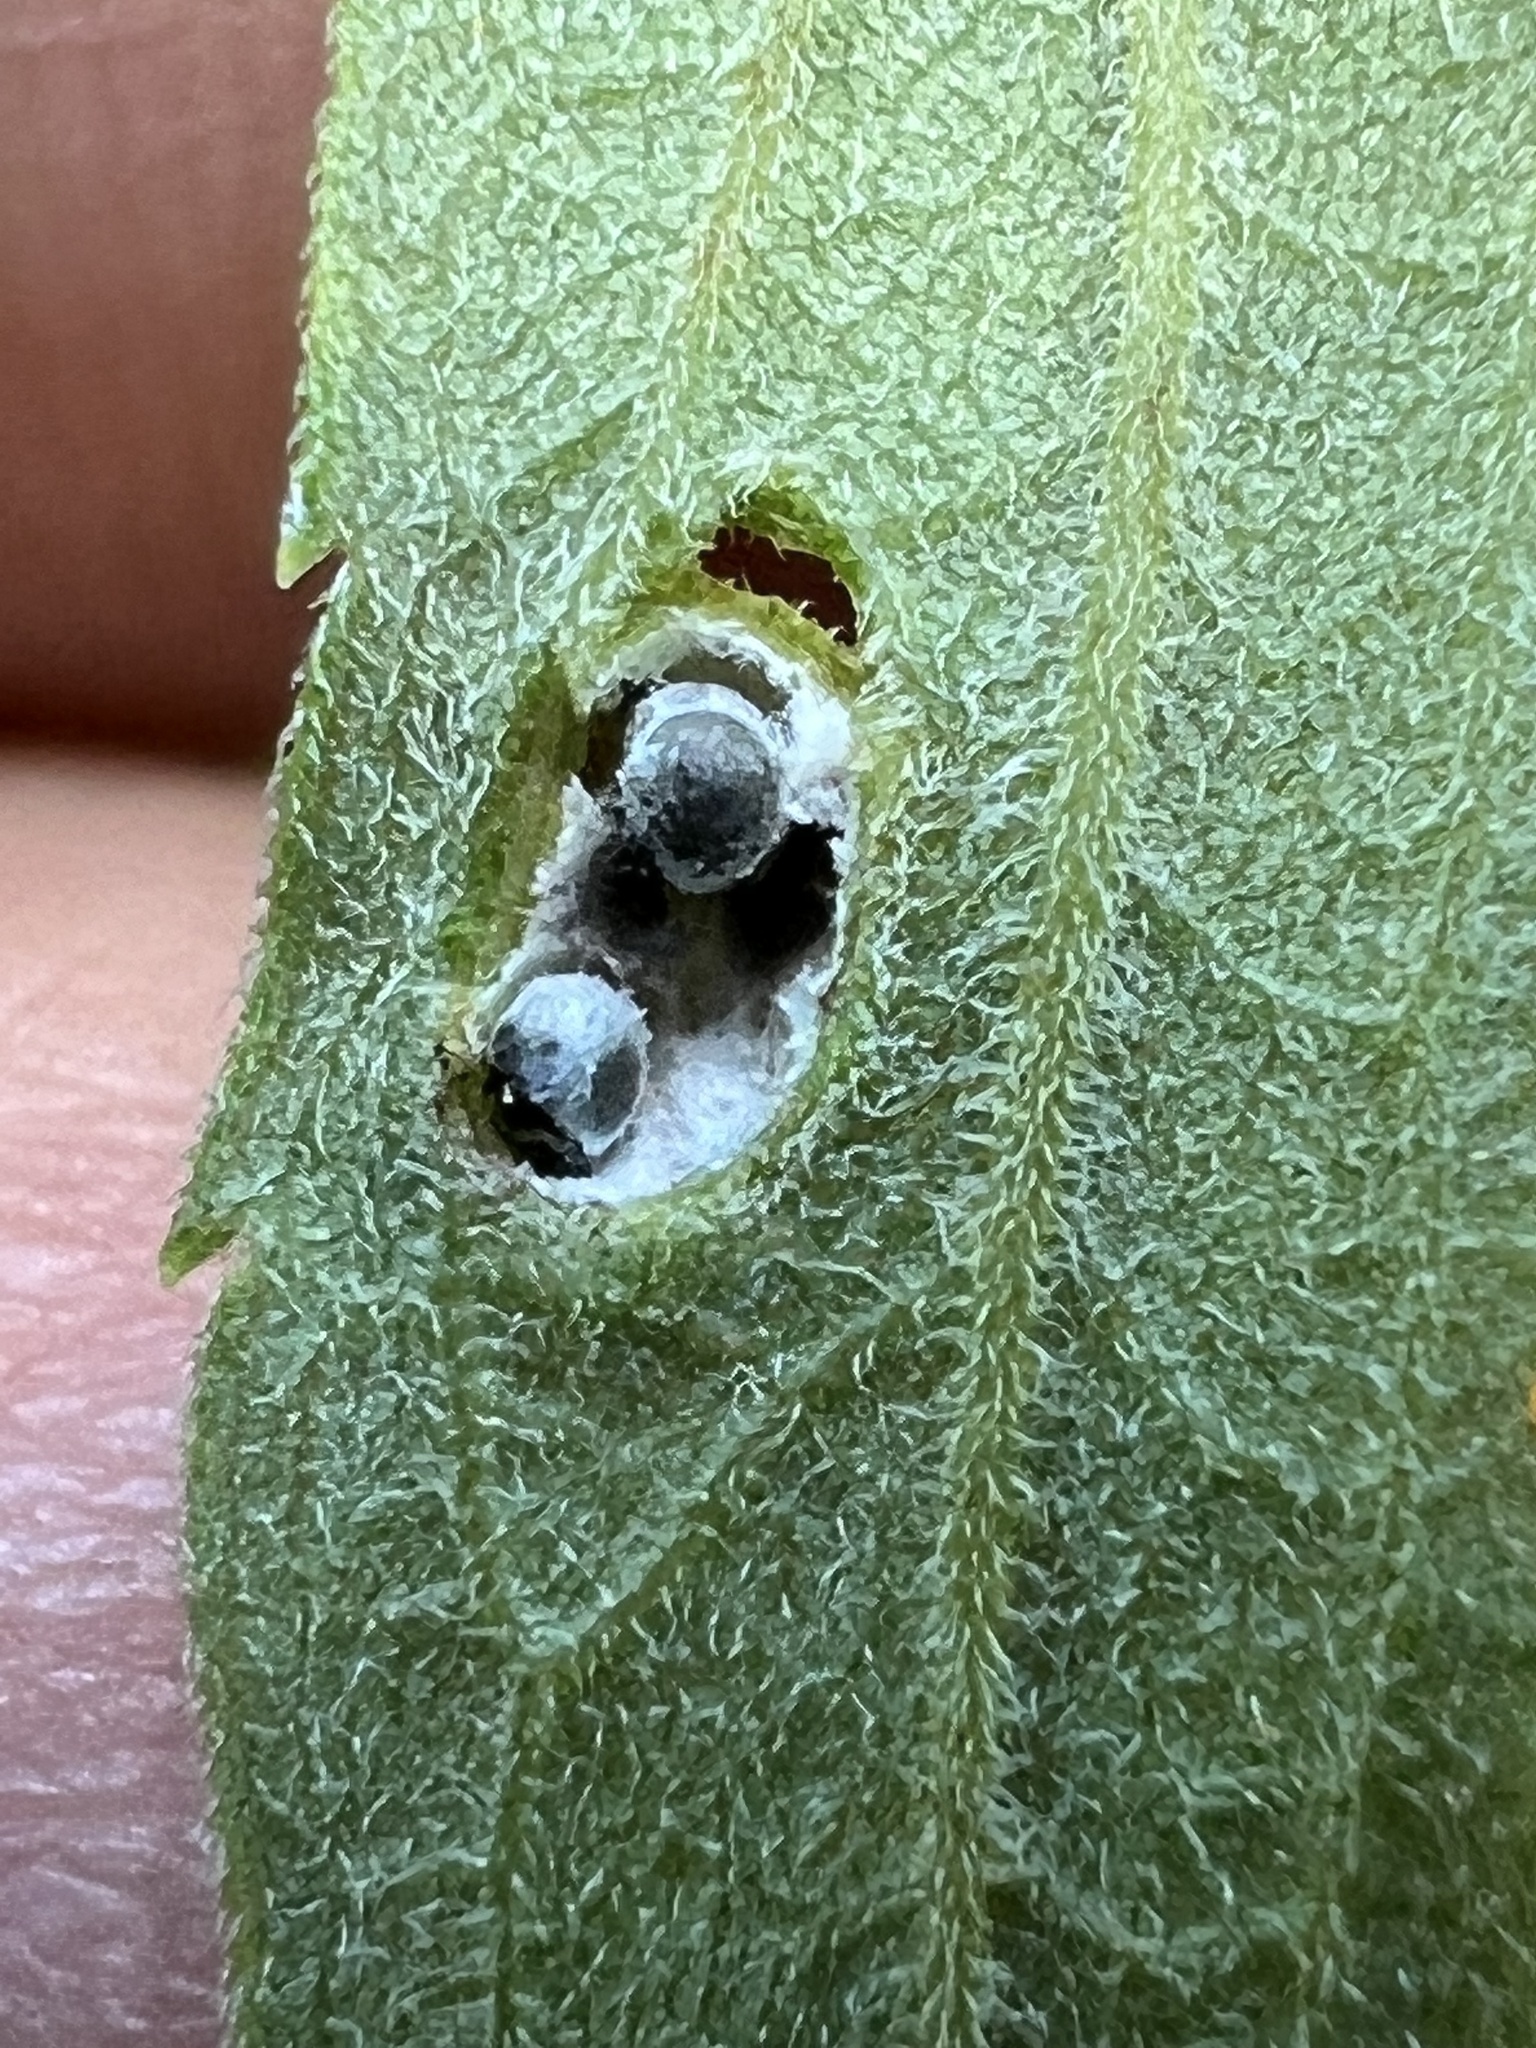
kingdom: Animalia
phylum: Arthropoda
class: Insecta
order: Diptera
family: Cecidomyiidae
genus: Asphondylia
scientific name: Asphondylia solidaginis
